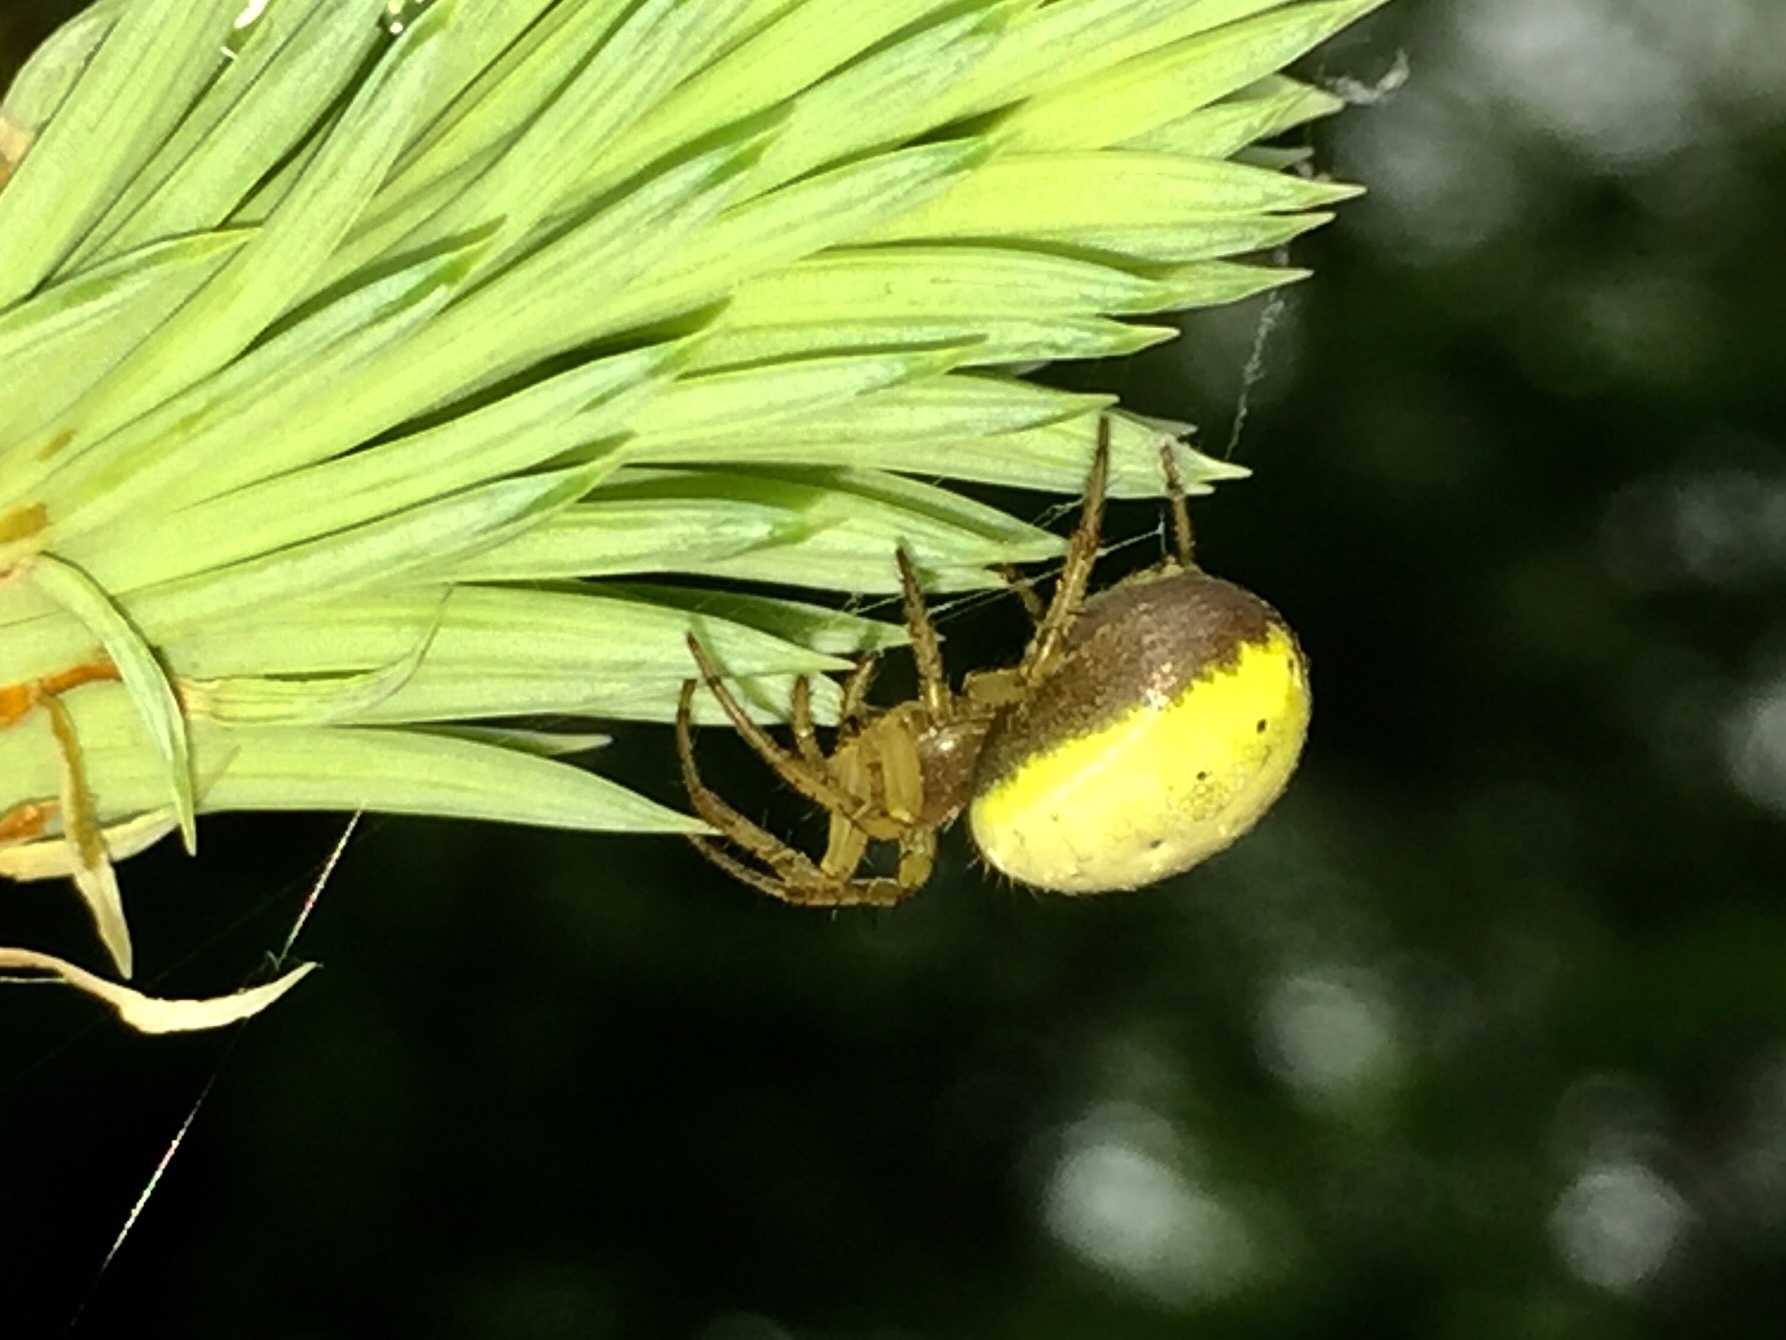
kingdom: Animalia
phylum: Arthropoda
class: Arachnida
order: Araneae
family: Araneidae
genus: Araniella
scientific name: Araniella displicata
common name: Sixspotted orb weaver
